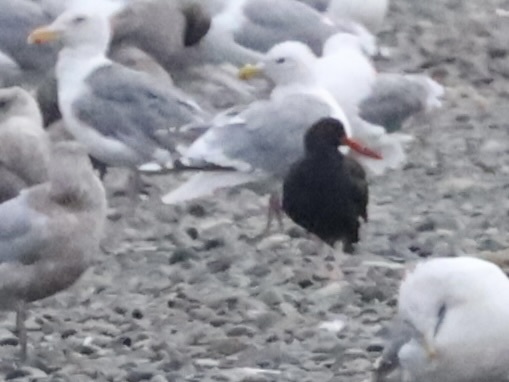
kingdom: Animalia
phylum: Chordata
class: Aves
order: Charadriiformes
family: Haematopodidae
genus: Haematopus
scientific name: Haematopus bachmani
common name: Black oystercatcher
